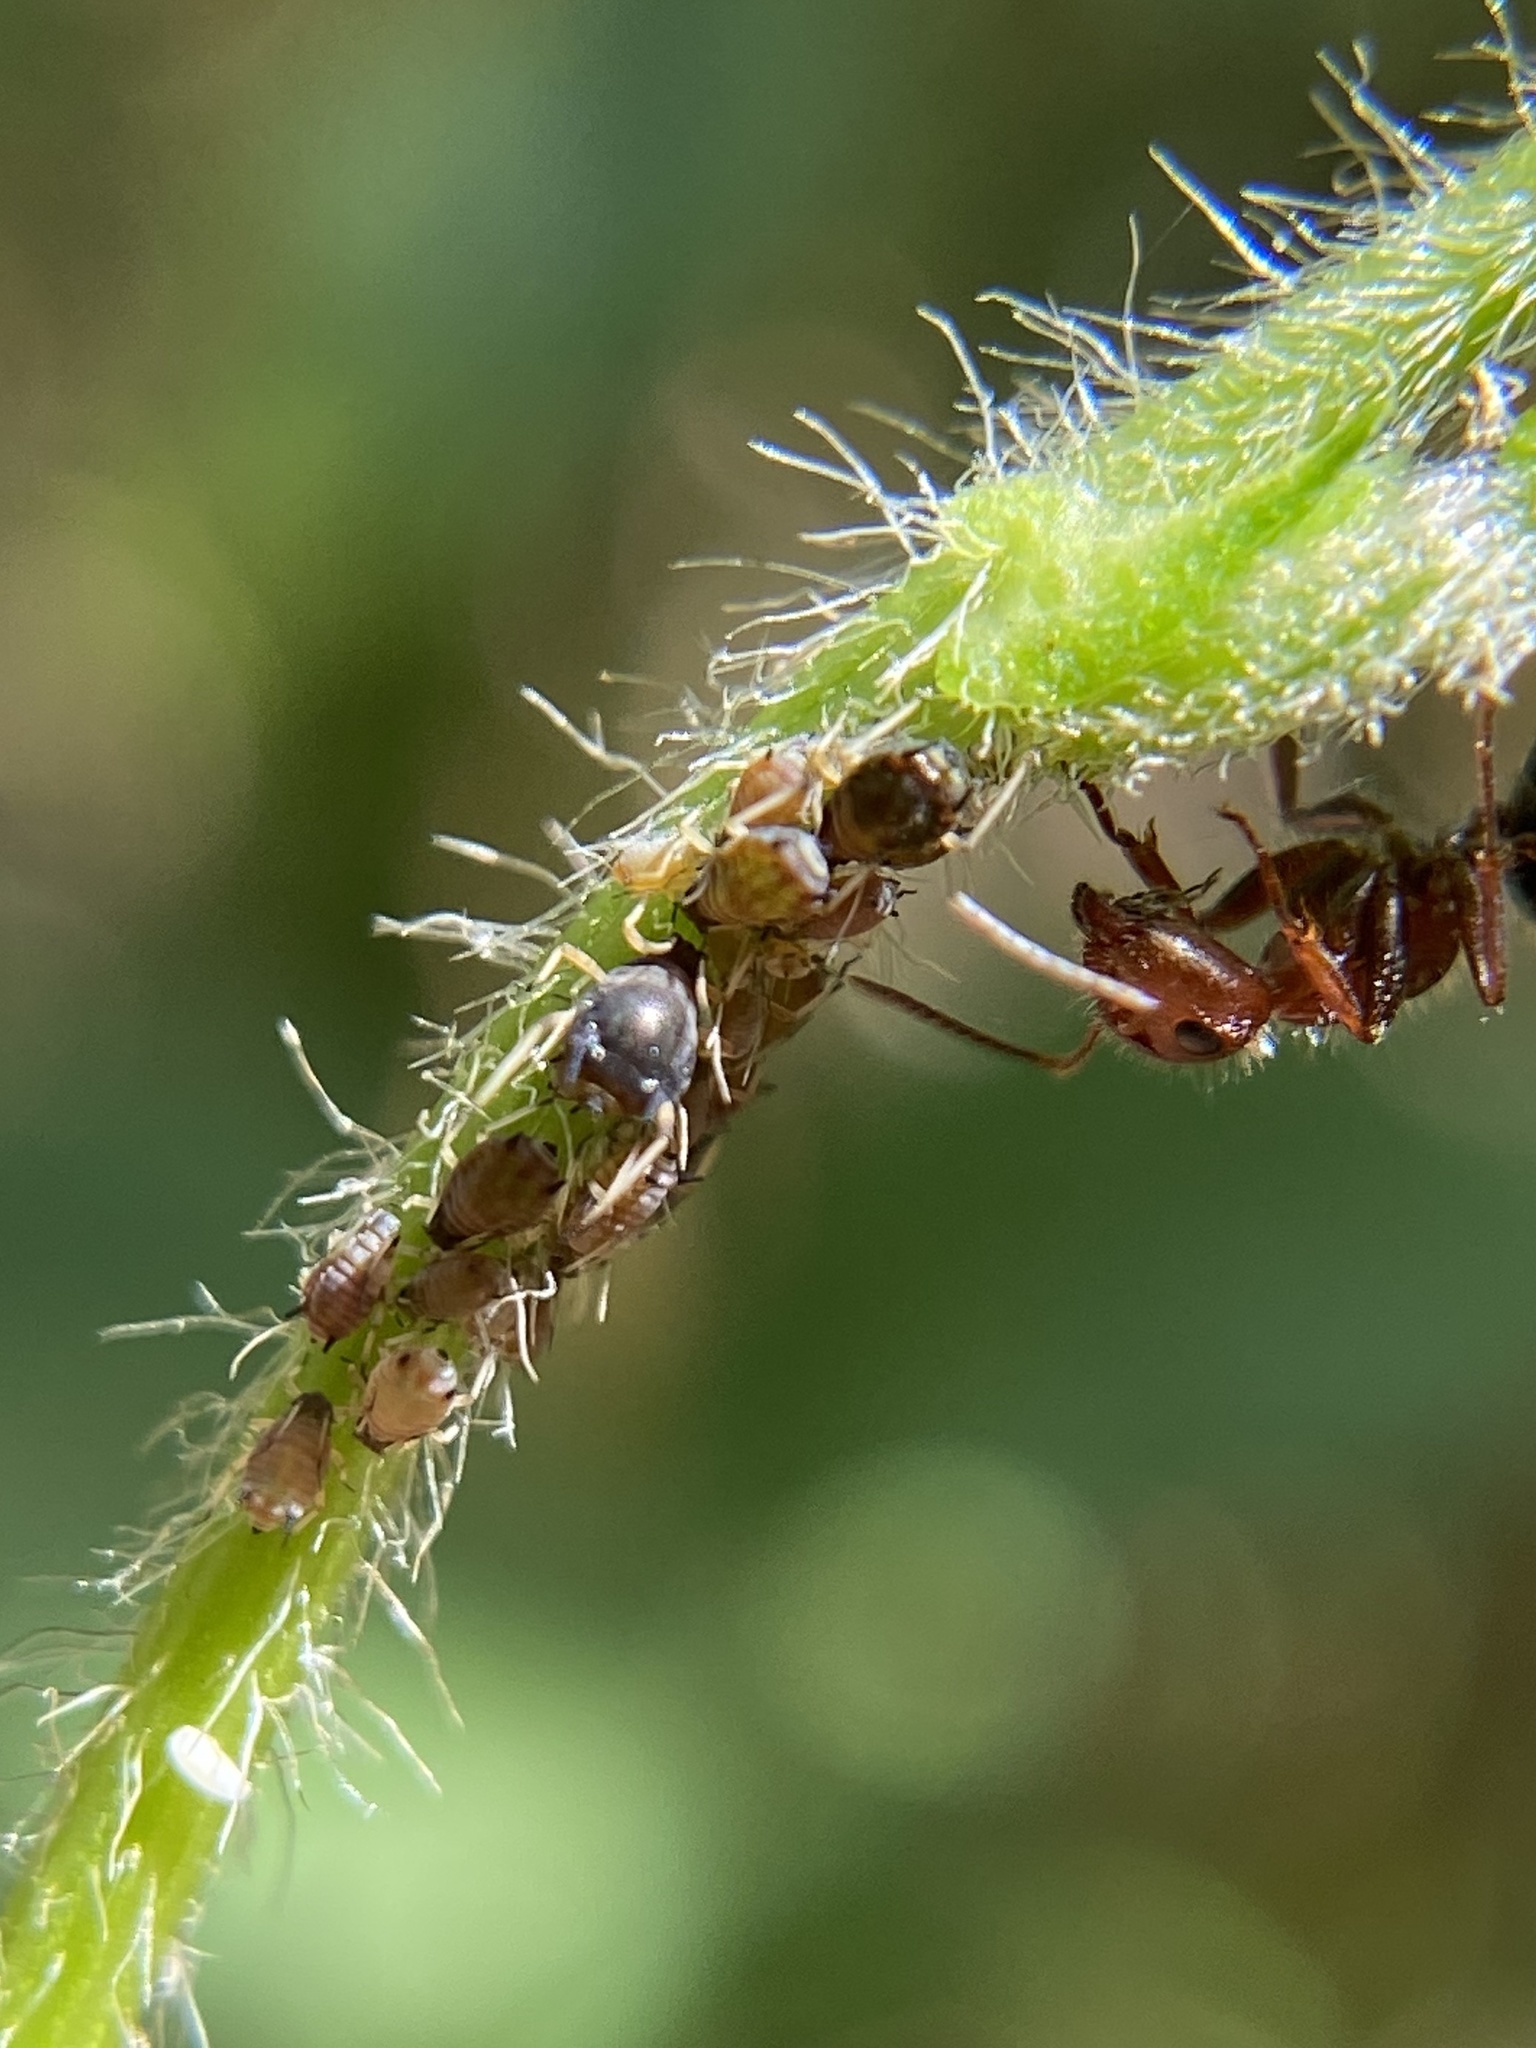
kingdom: Animalia
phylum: Arthropoda
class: Insecta
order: Hymenoptera
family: Formicidae
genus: Camponotus
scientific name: Camponotus planatus
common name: Compact carpenter ant
